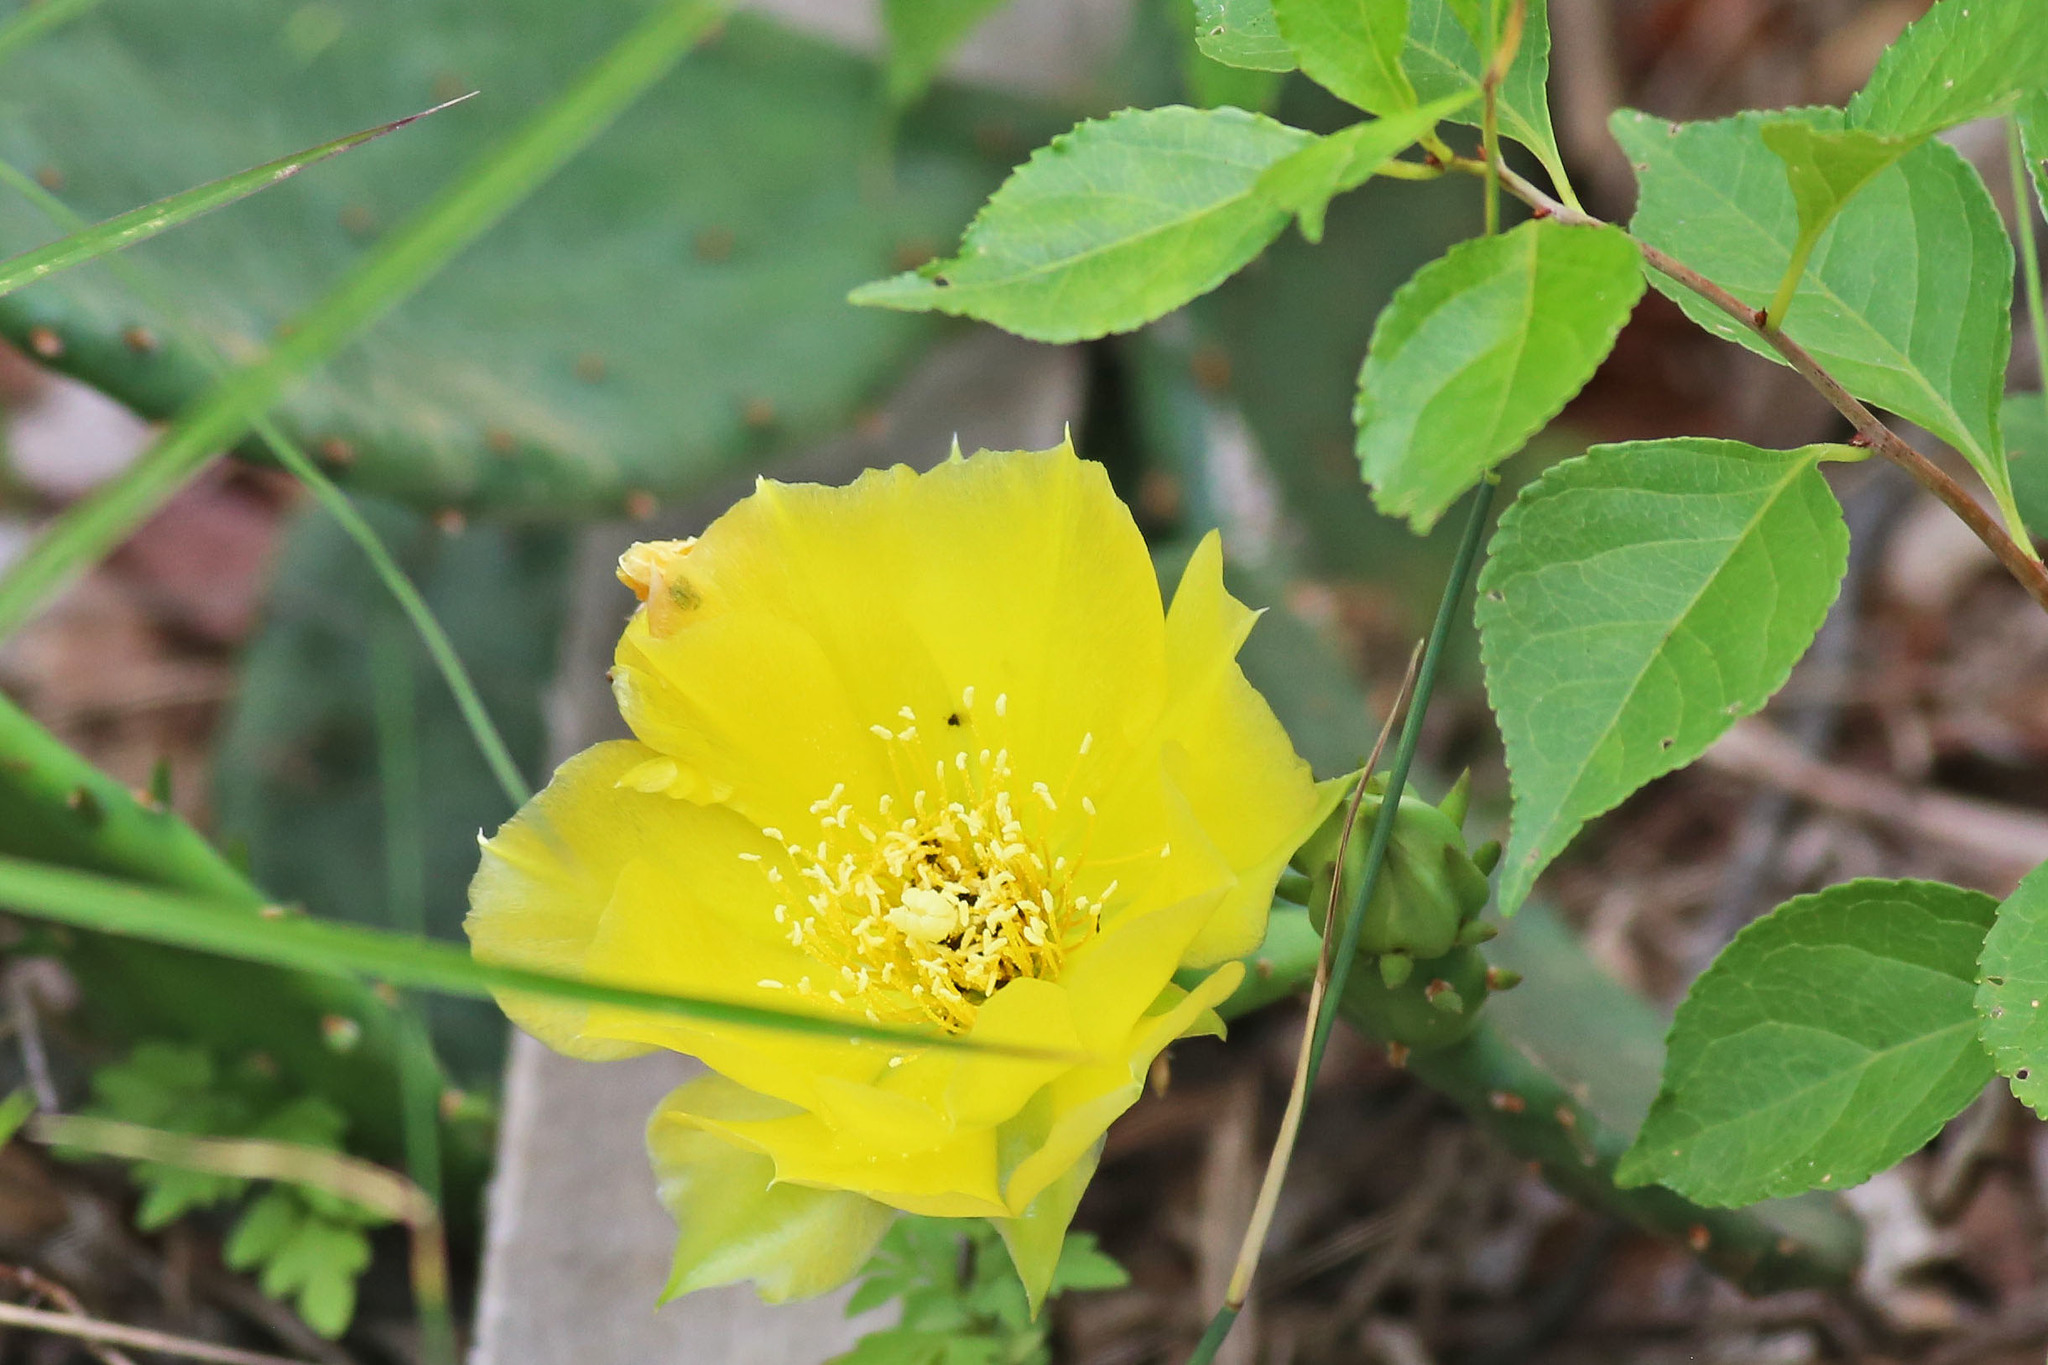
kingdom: Plantae
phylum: Tracheophyta
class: Magnoliopsida
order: Caryophyllales
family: Cactaceae
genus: Opuntia
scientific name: Opuntia humifusa
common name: Eastern prickly-pear
